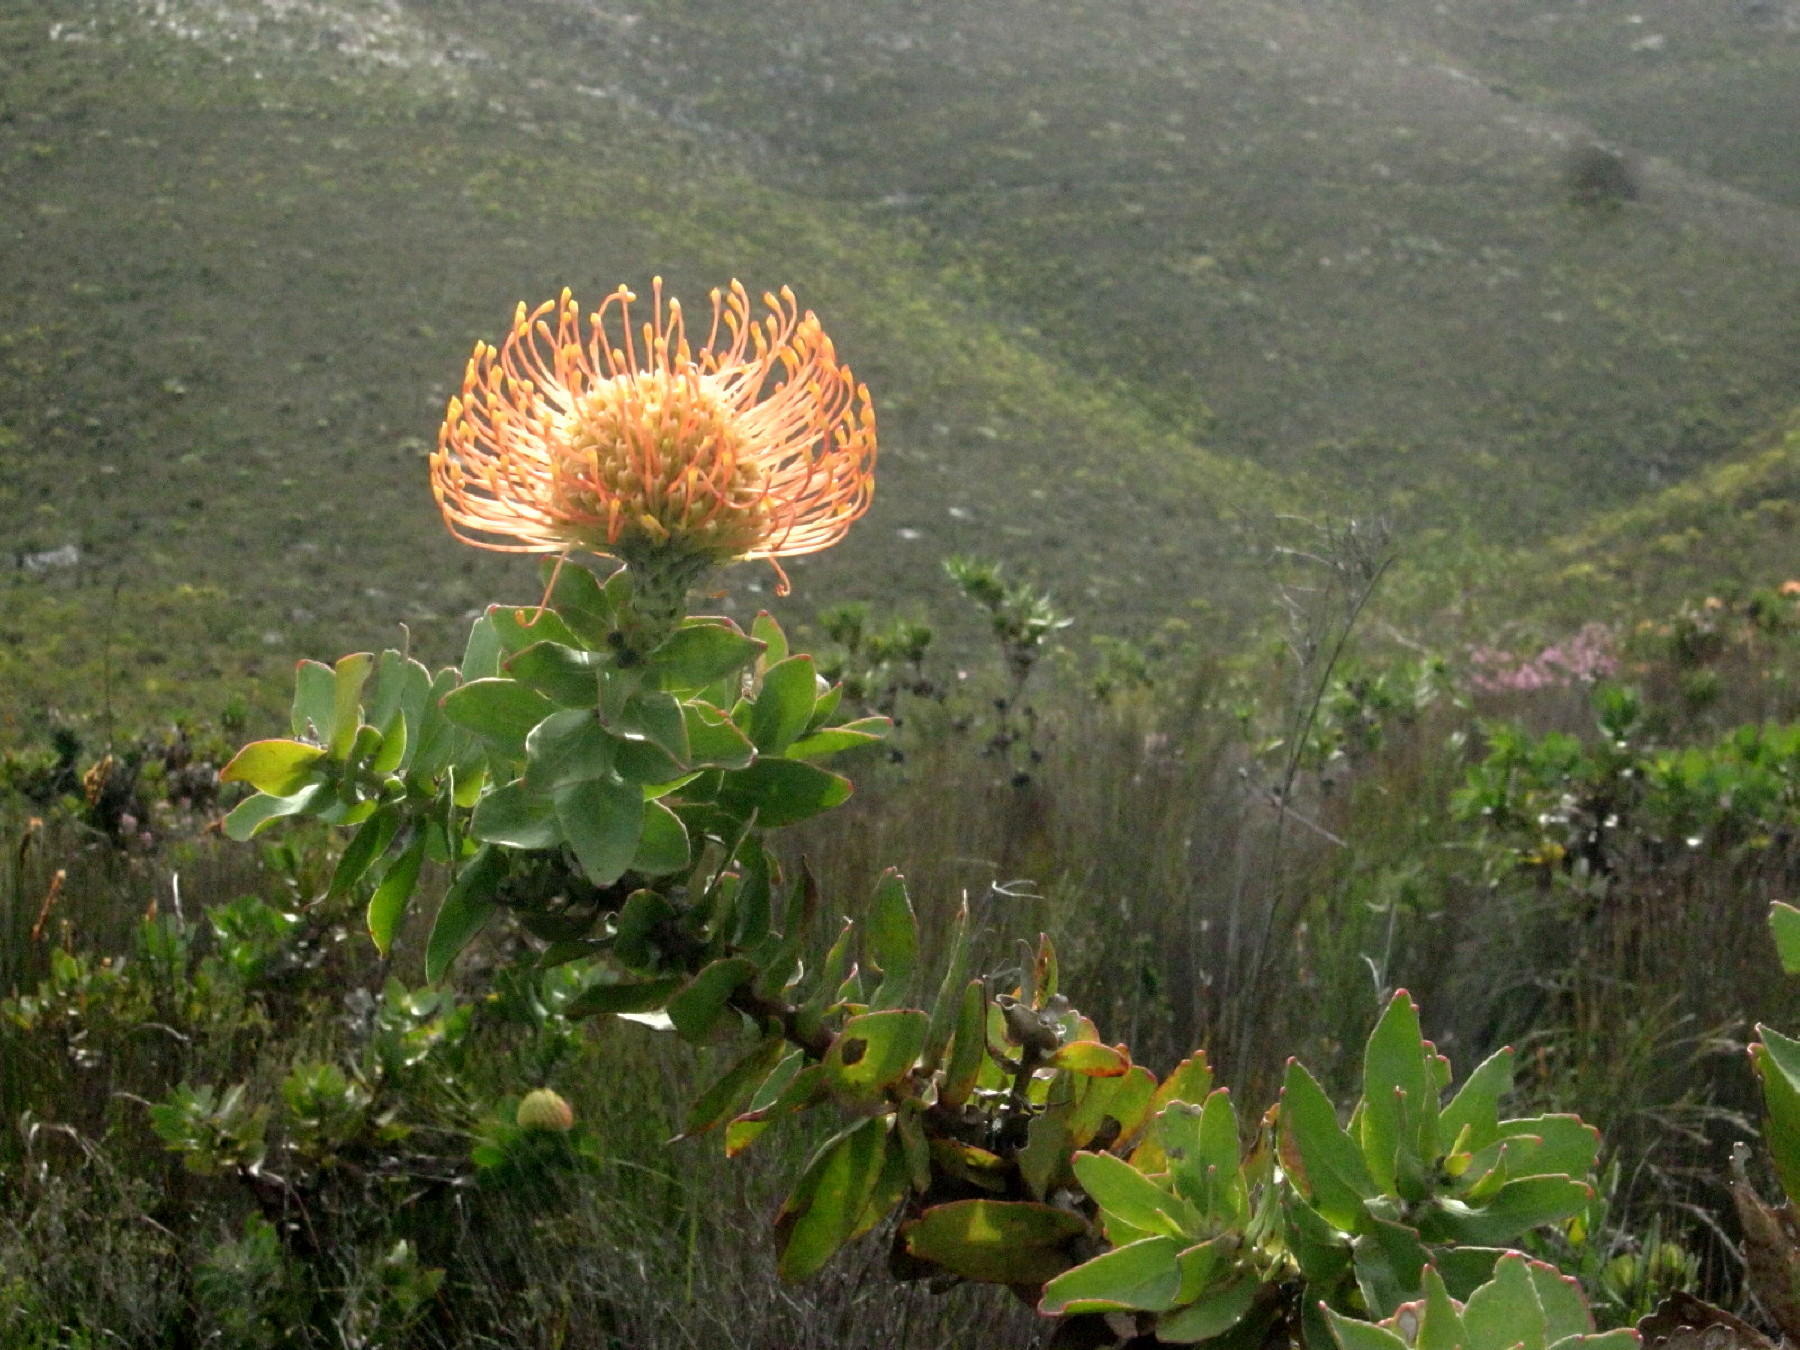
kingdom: Plantae
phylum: Tracheophyta
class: Magnoliopsida
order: Proteales
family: Proteaceae
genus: Leucospermum
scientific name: Leucospermum cordifolium
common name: Red pincushion-protea
